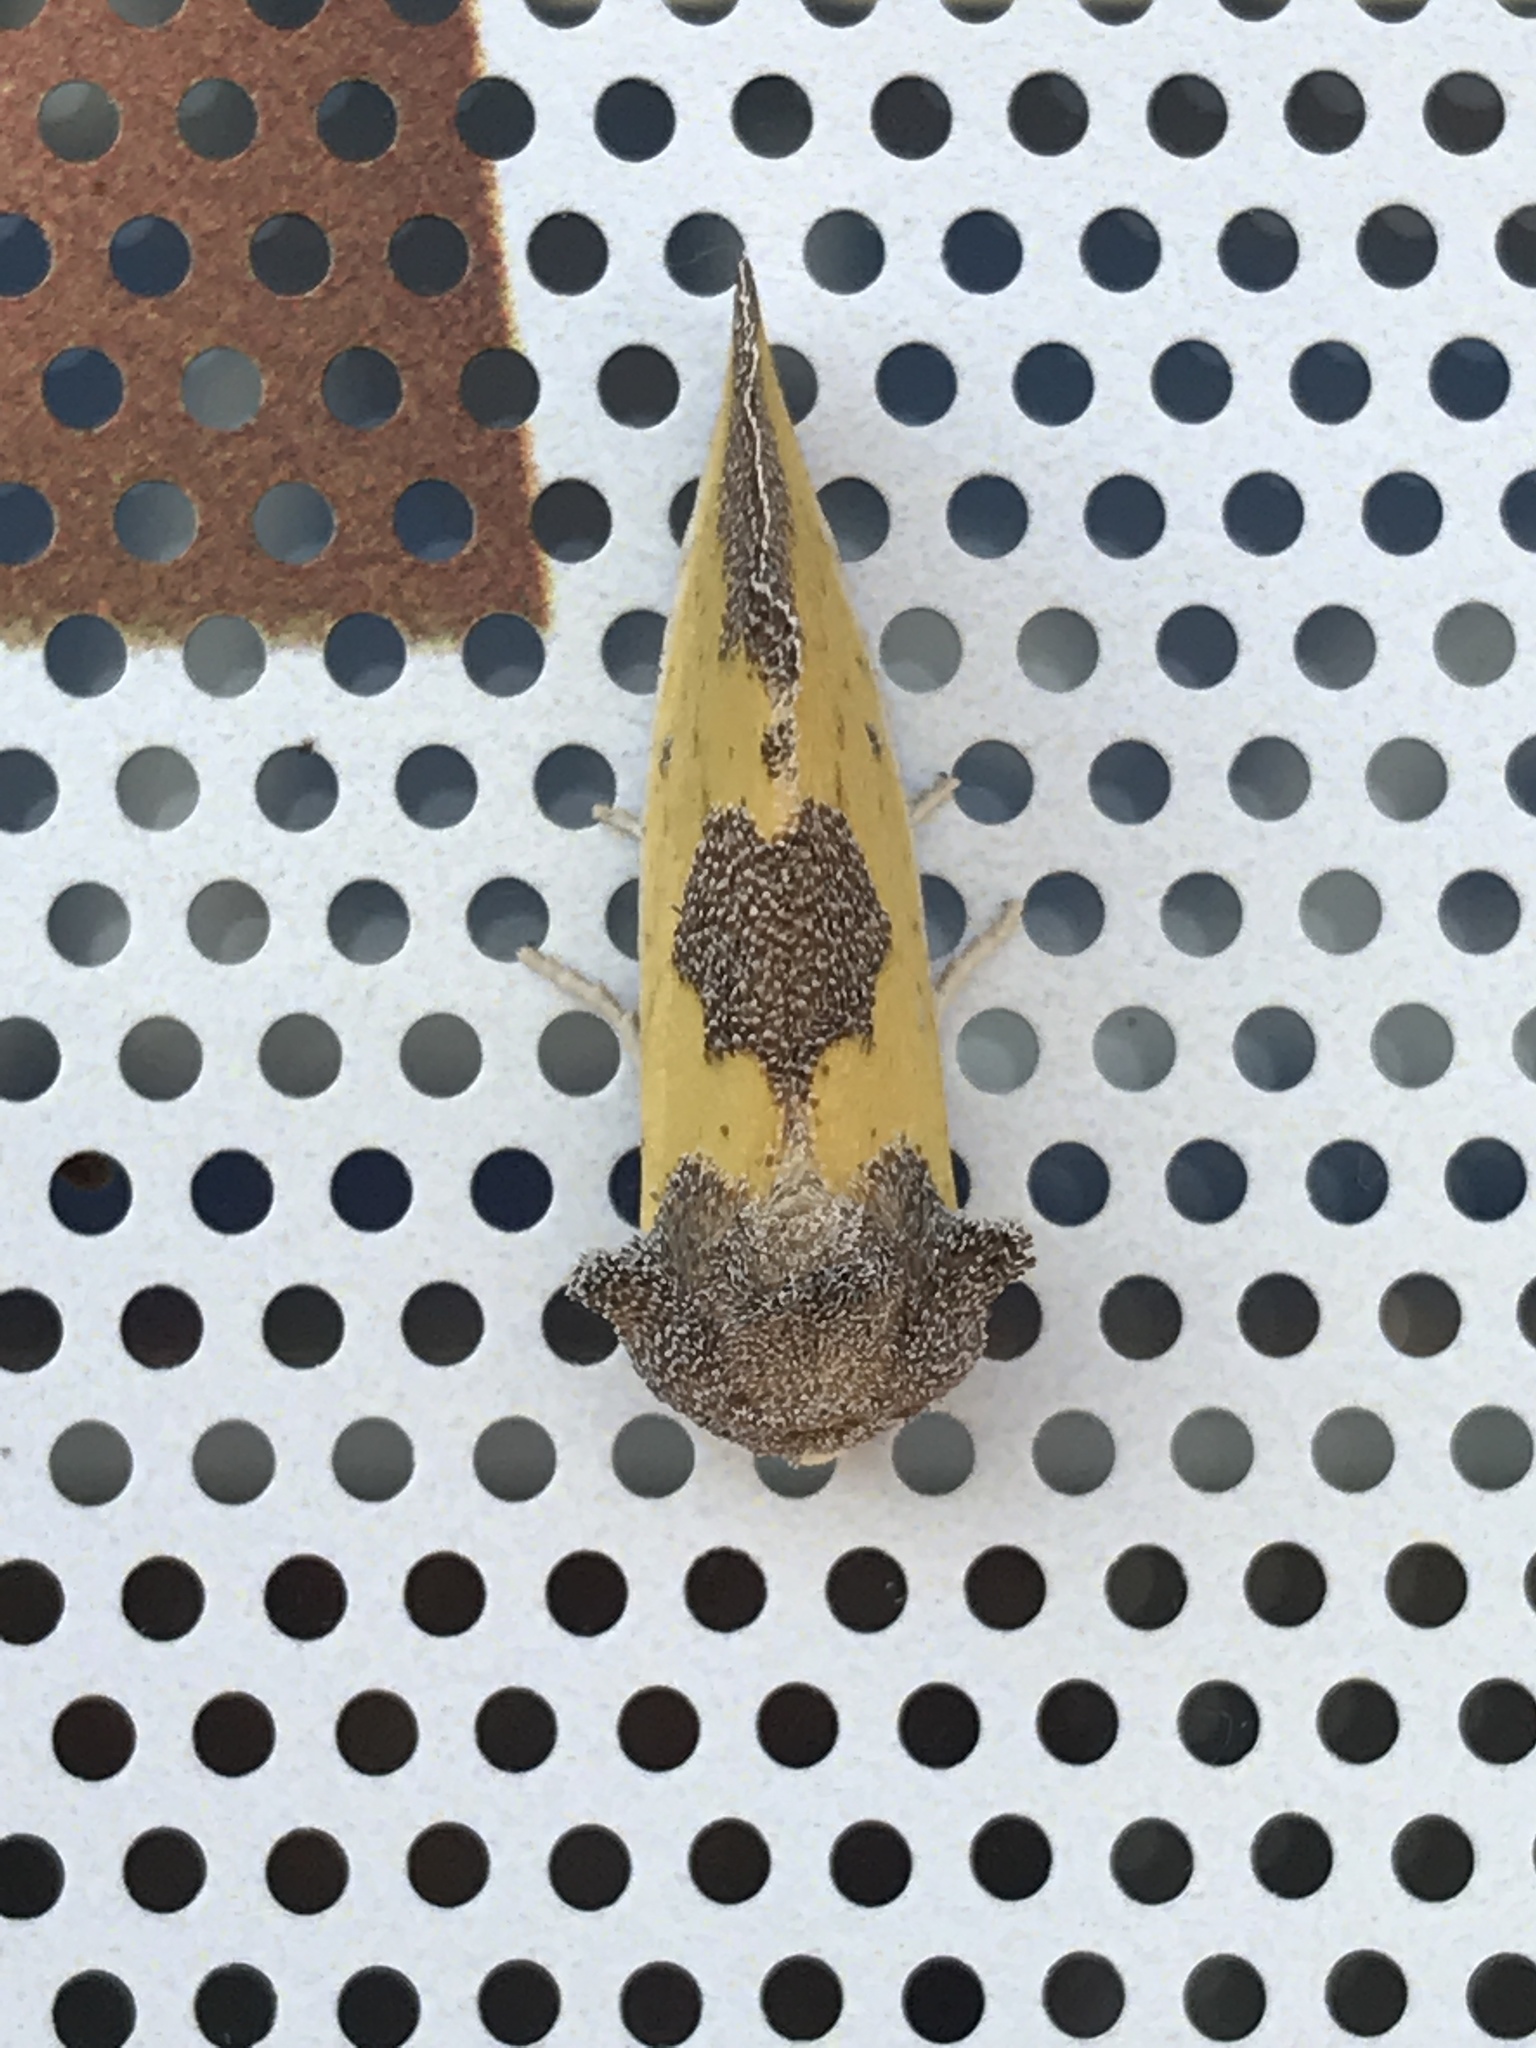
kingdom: Animalia
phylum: Arthropoda
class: Insecta
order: Lepidoptera
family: Noctuidae
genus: Stiria
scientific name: Stiria rugifrons
